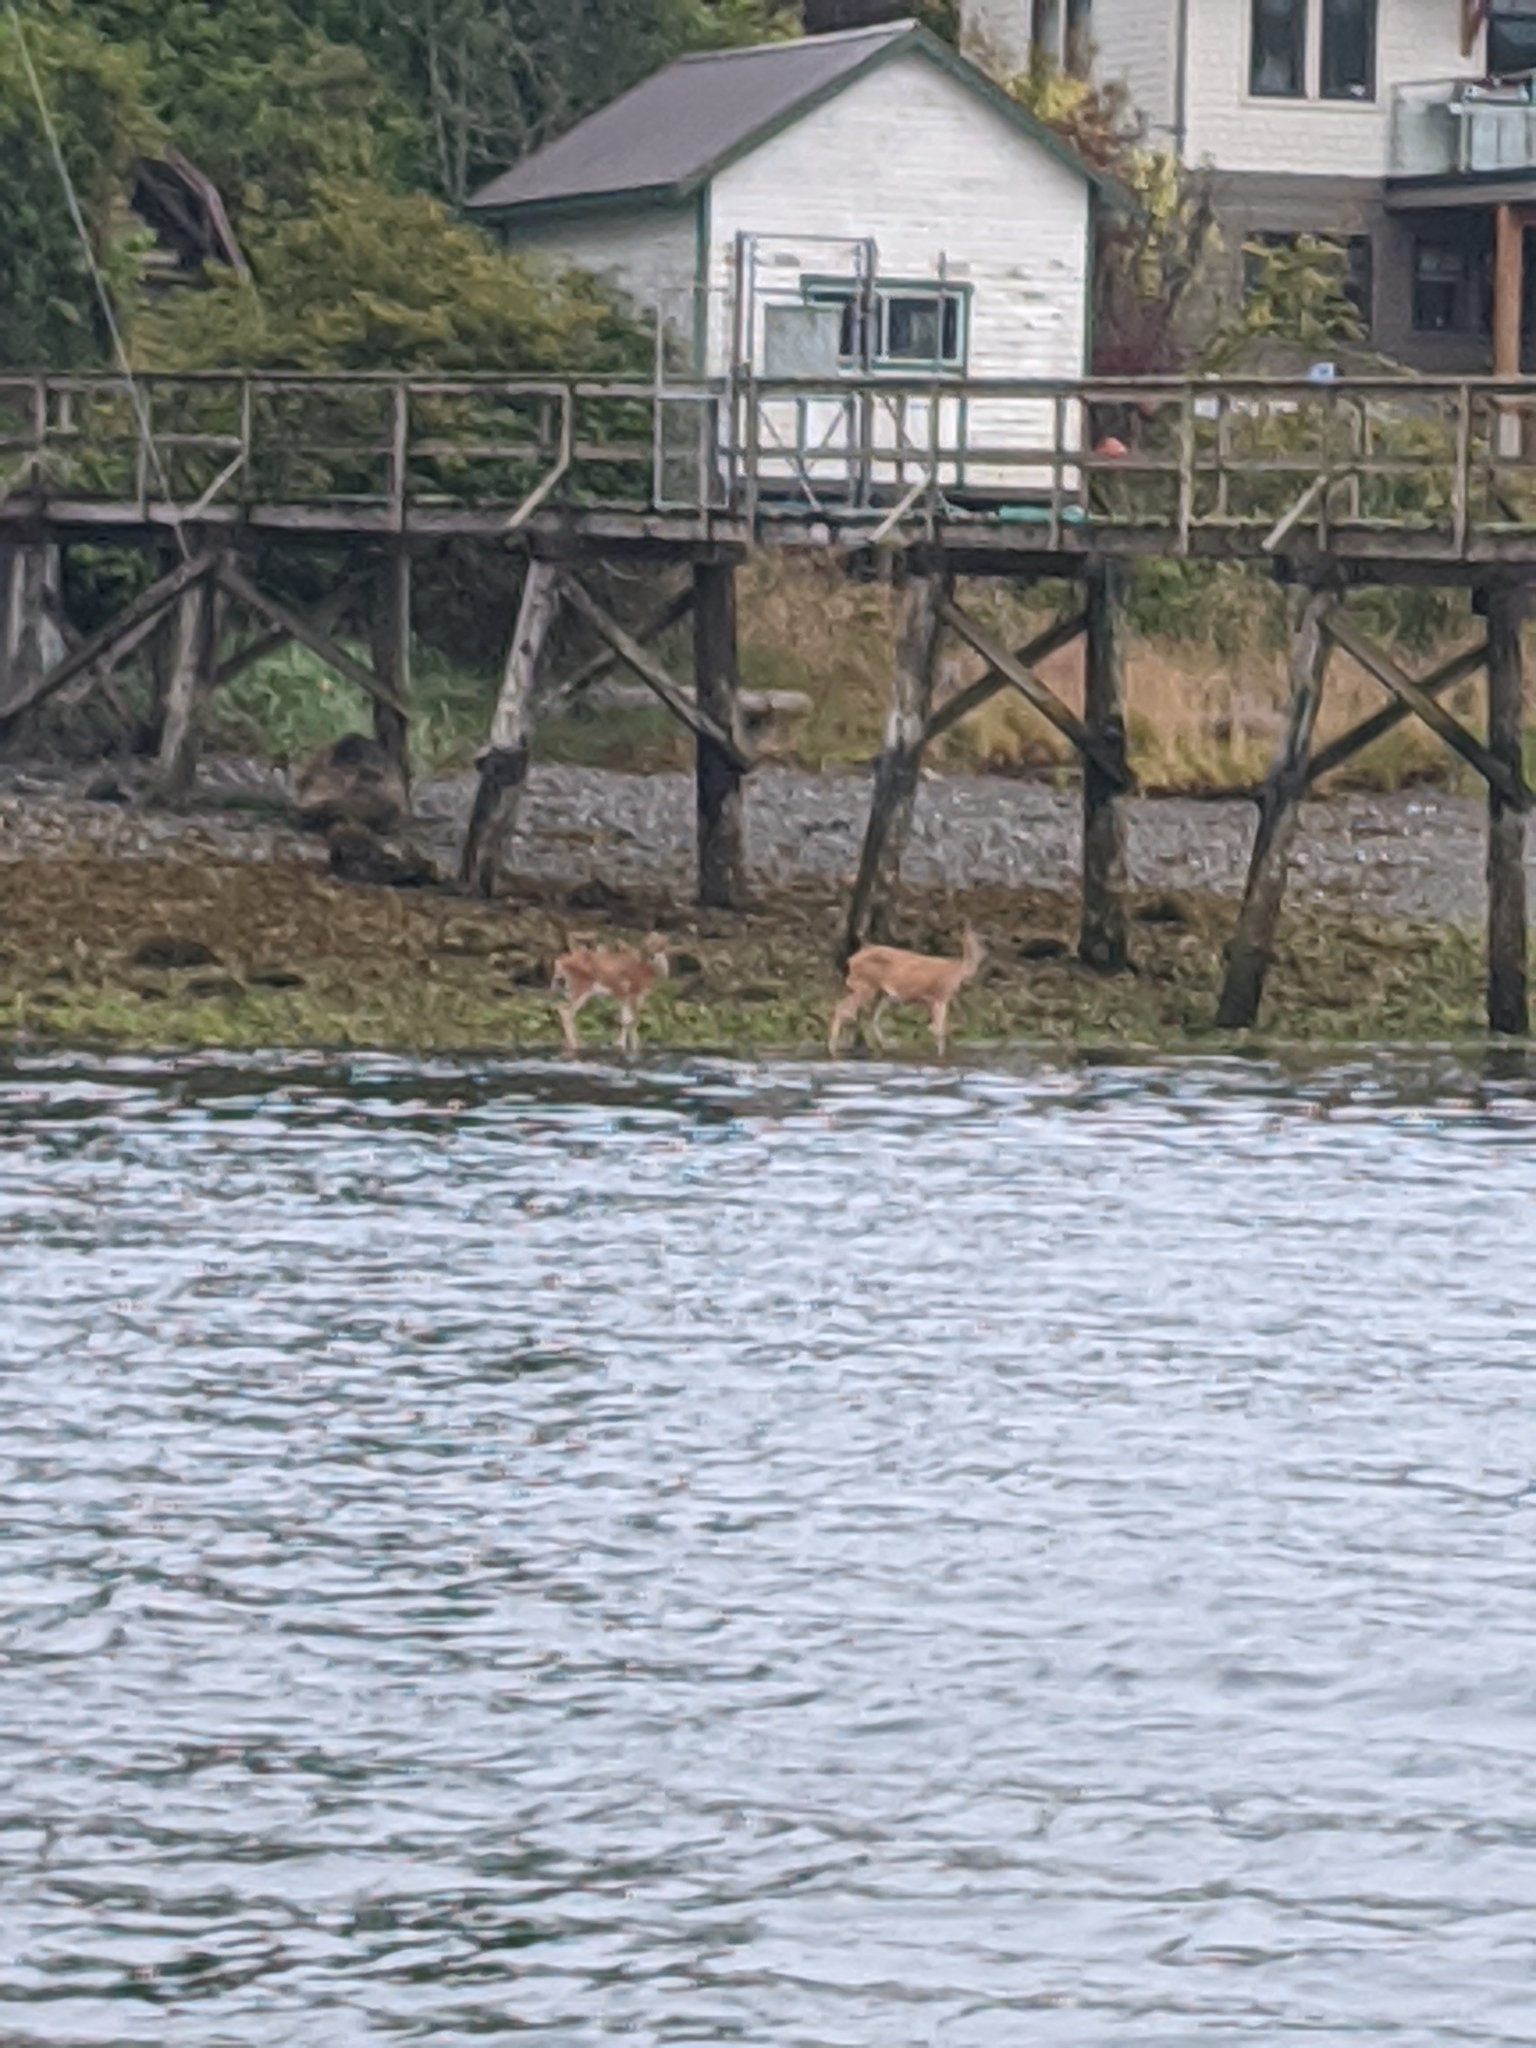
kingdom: Animalia
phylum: Chordata
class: Mammalia
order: Artiodactyla
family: Cervidae
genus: Odocoileus
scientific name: Odocoileus hemionus
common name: Mule deer
